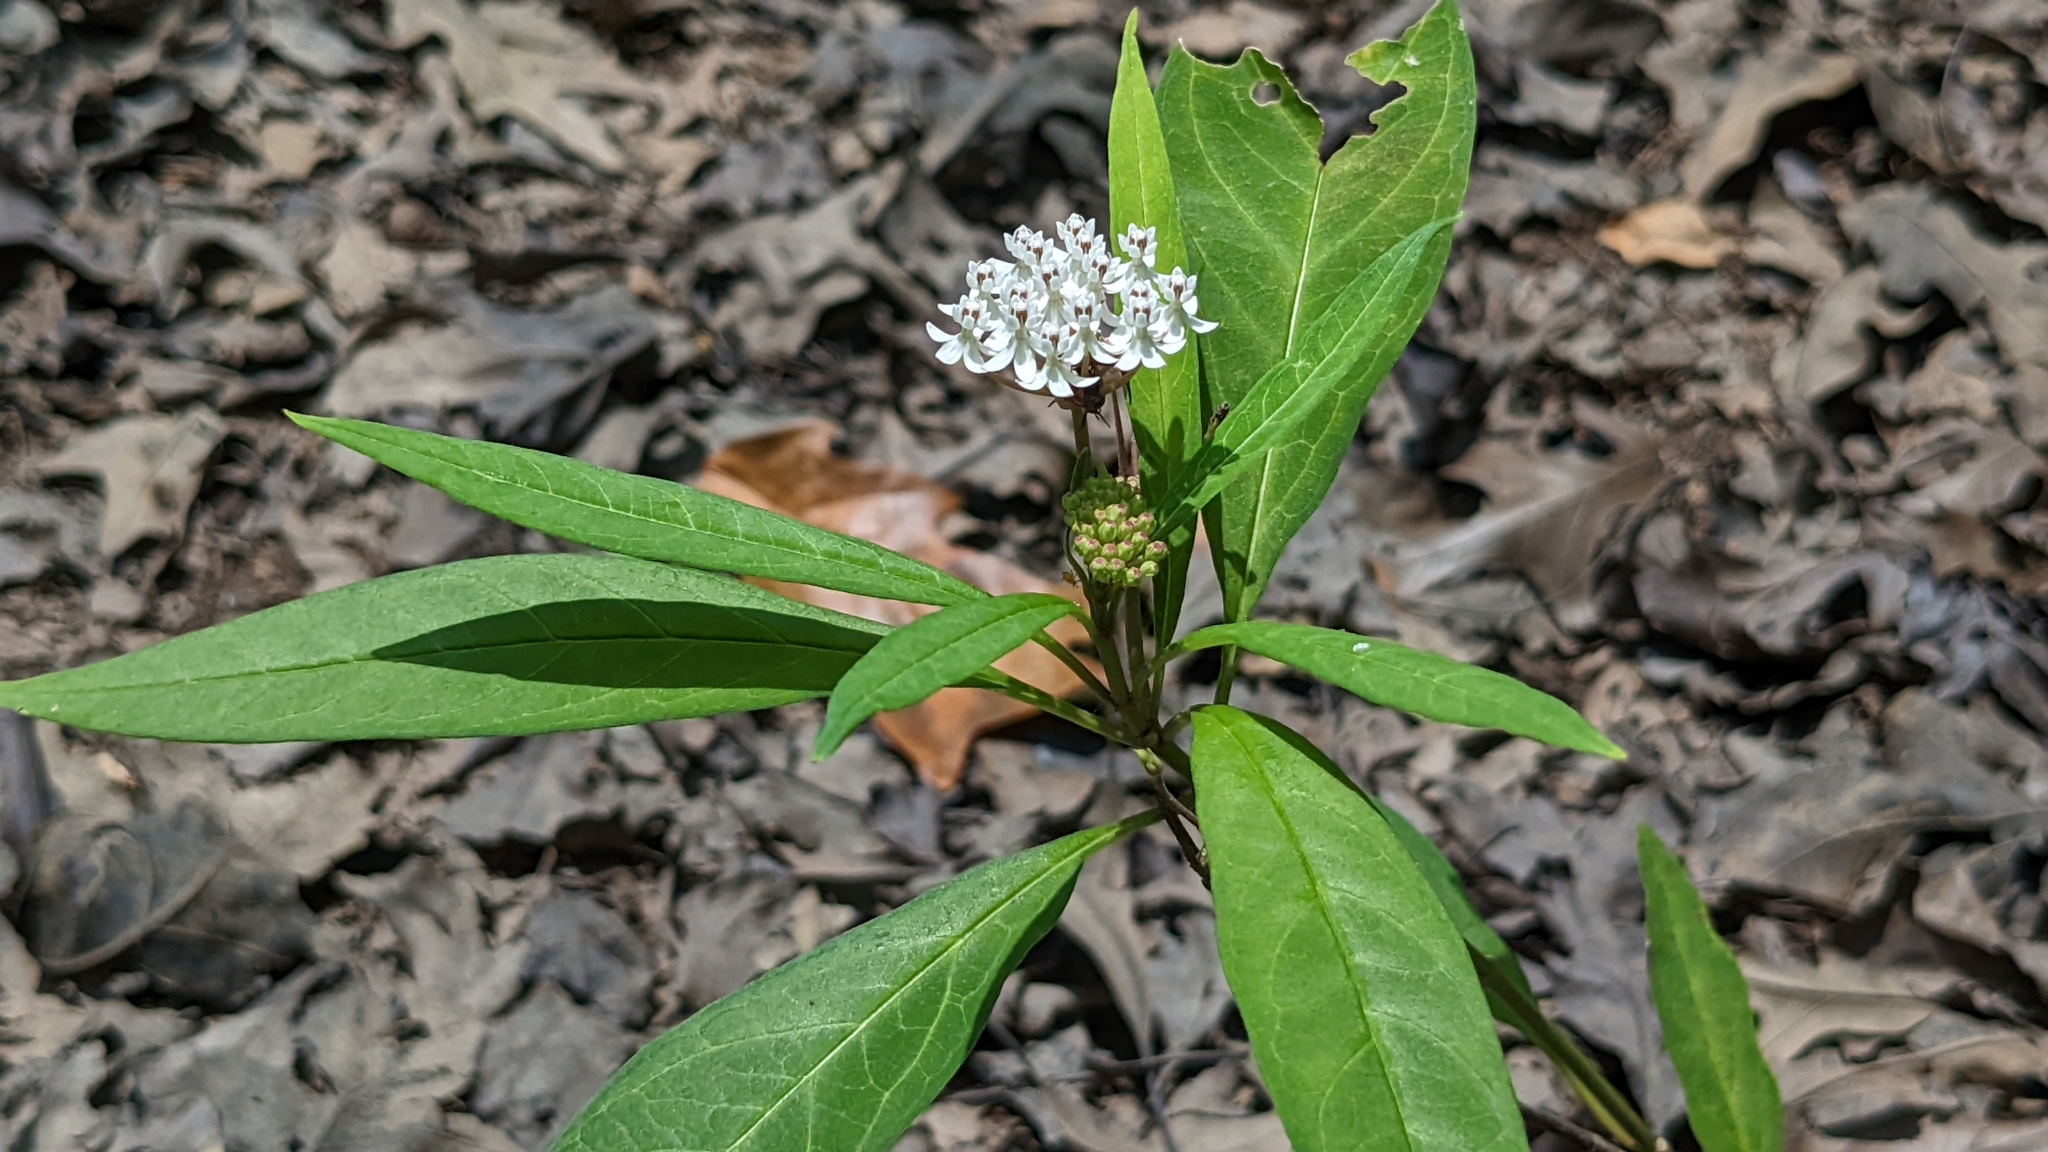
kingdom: Plantae
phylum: Tracheophyta
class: Magnoliopsida
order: Gentianales
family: Apocynaceae
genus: Asclepias
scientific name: Asclepias perennis
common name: Smooth-seed milkweed
